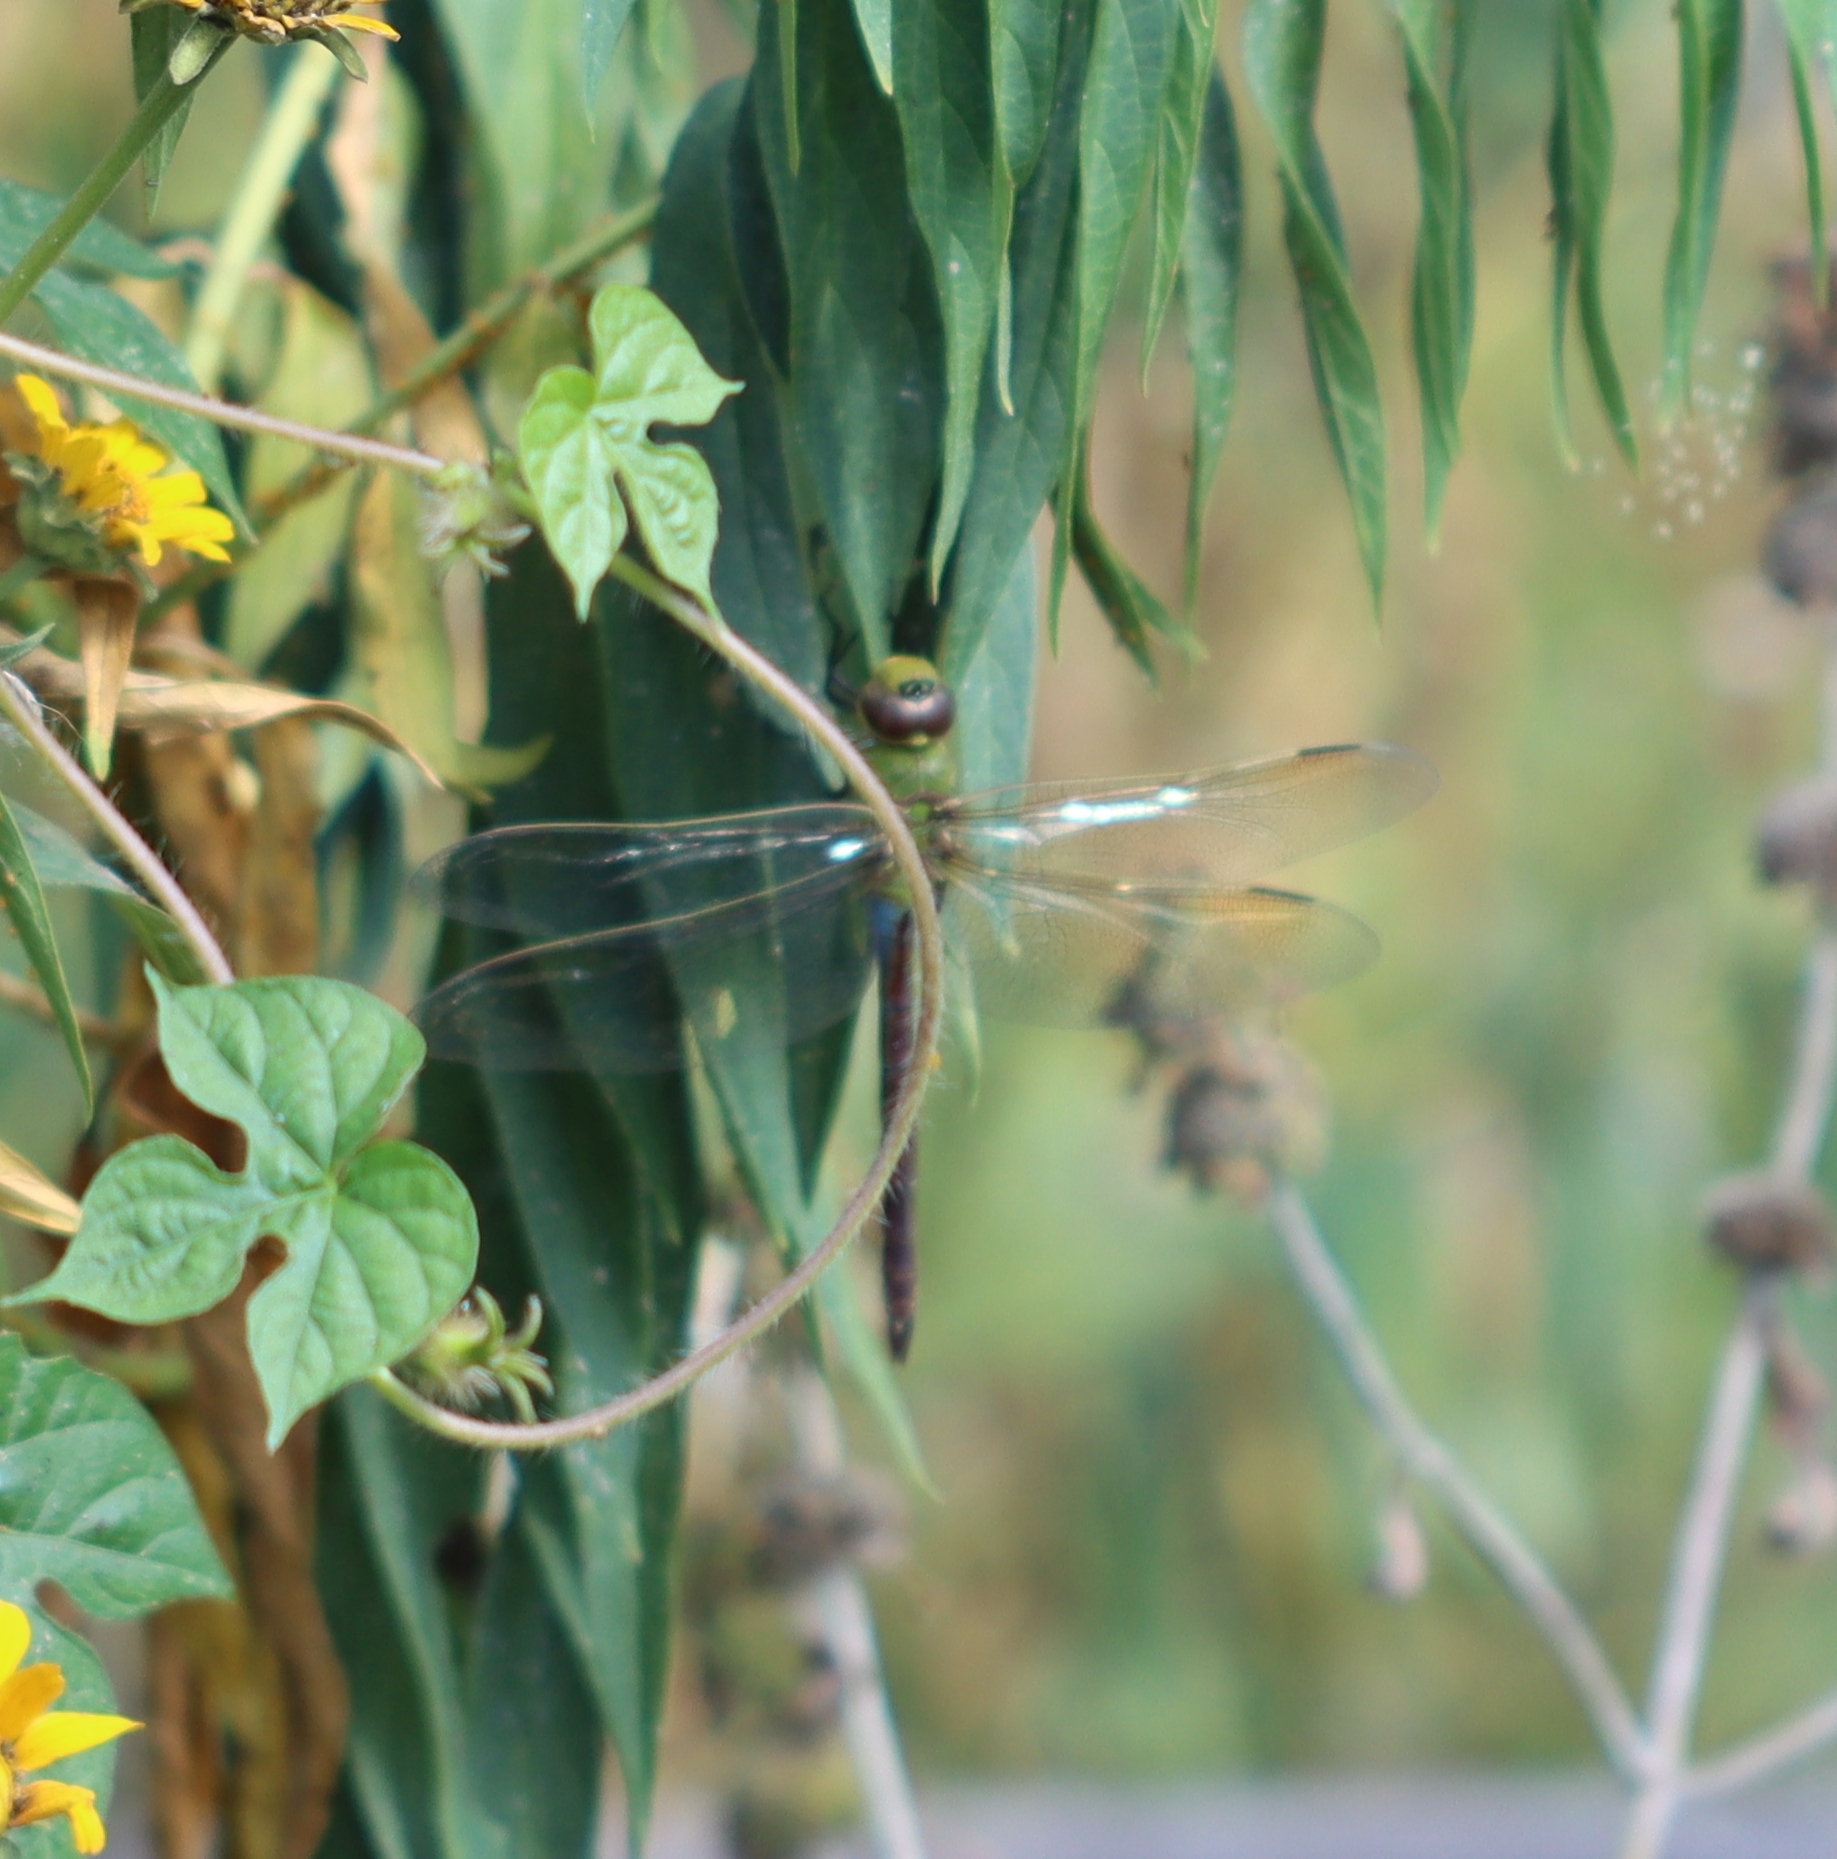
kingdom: Animalia
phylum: Arthropoda
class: Insecta
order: Odonata
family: Aeshnidae
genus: Anax
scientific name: Anax junius
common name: Common green darner
